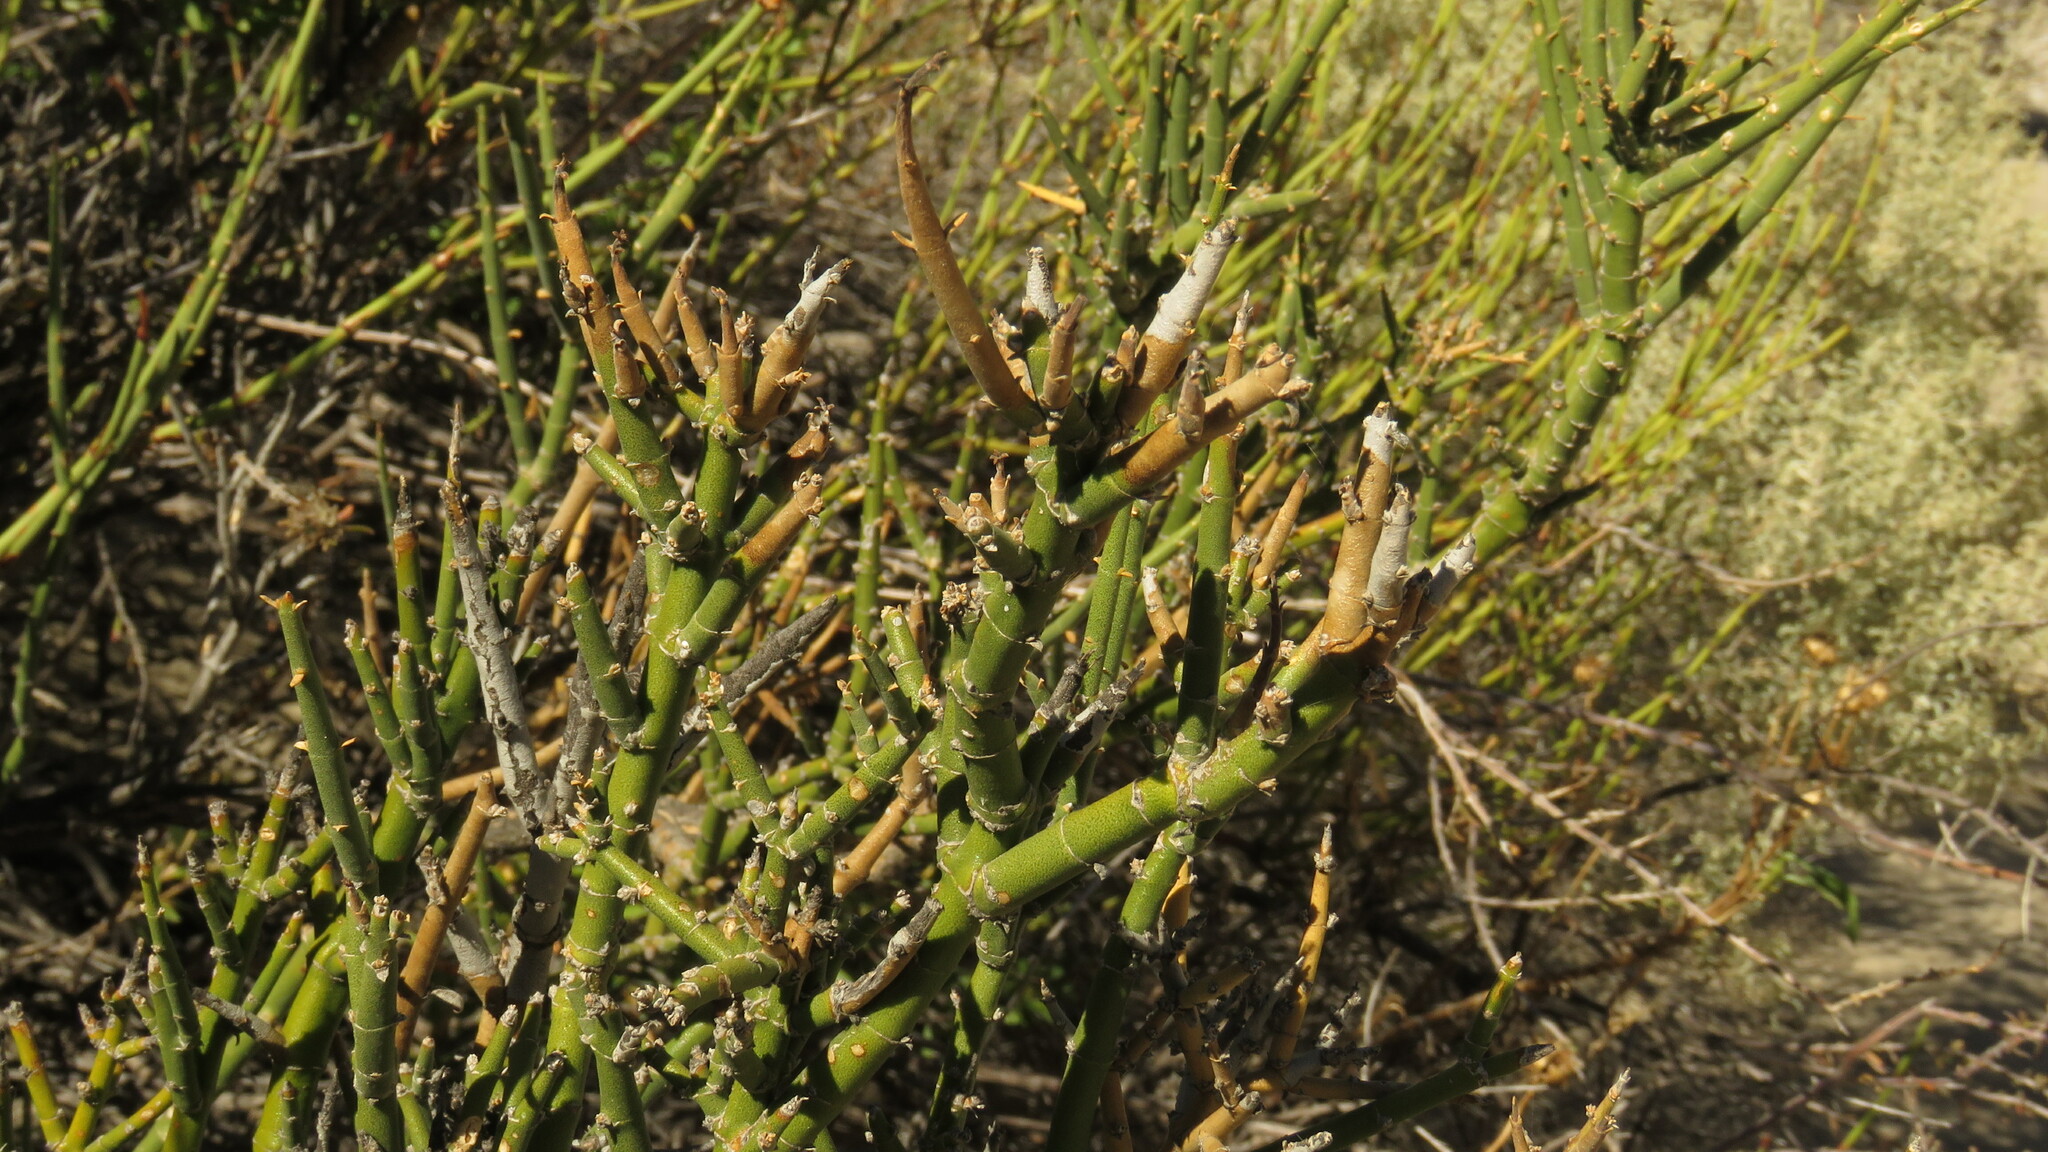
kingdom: Plantae
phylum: Tracheophyta
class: Magnoliopsida
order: Lamiales
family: Plantaginaceae
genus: Monttea
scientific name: Monttea aphylla
